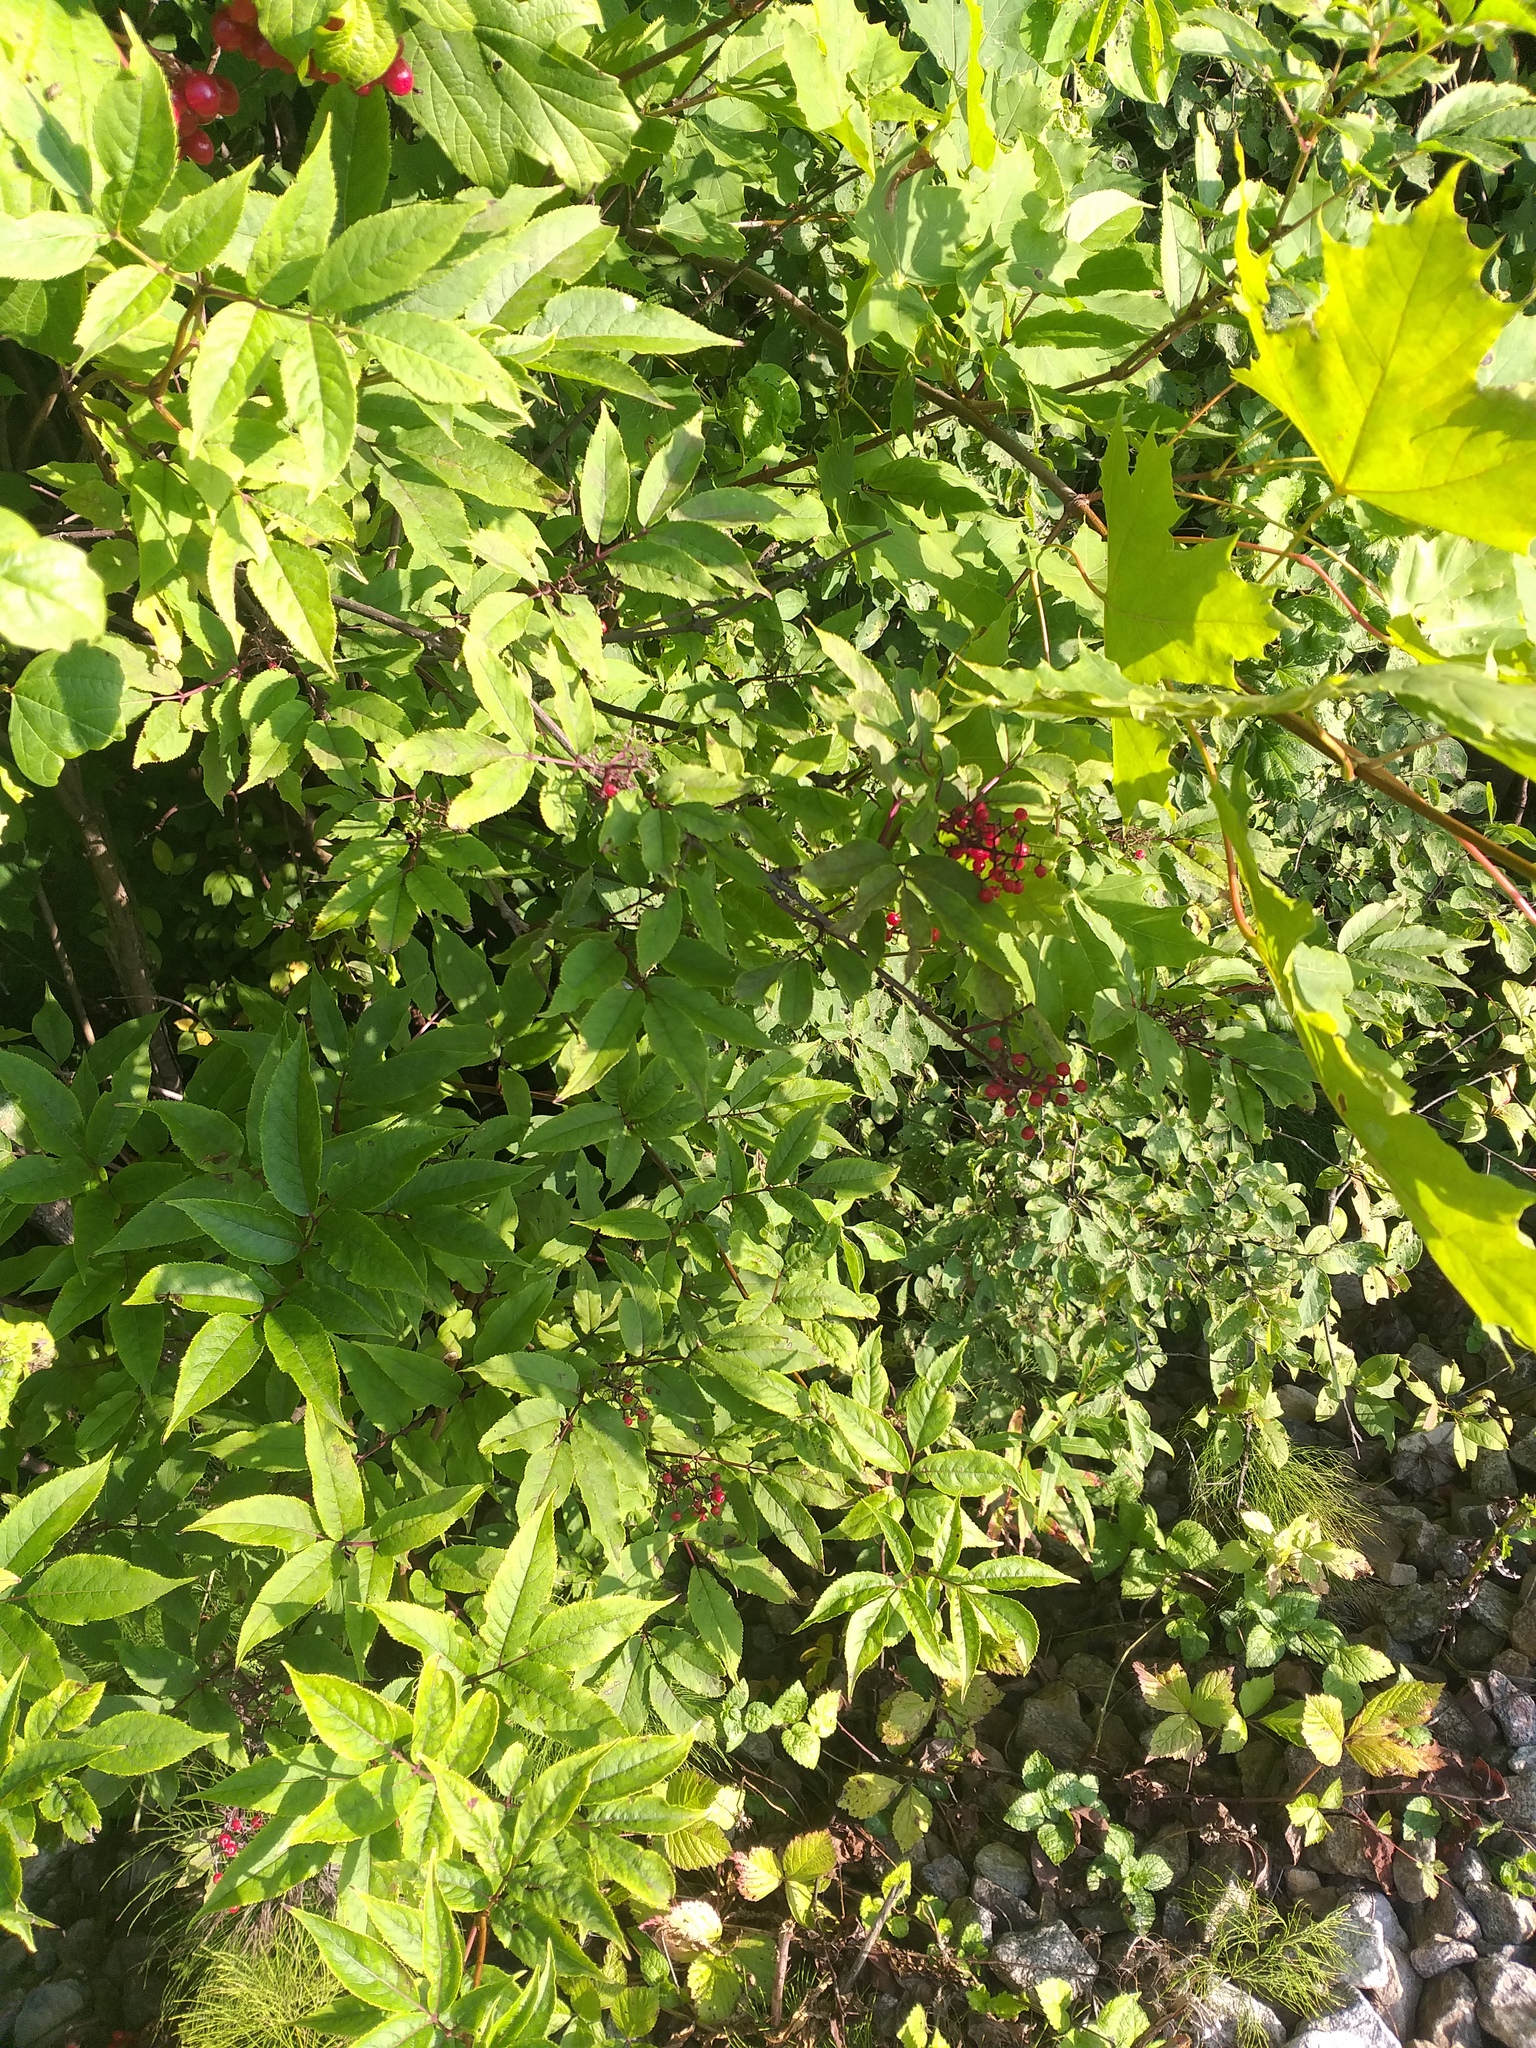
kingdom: Plantae
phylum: Tracheophyta
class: Magnoliopsida
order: Dipsacales
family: Viburnaceae
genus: Sambucus
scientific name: Sambucus racemosa
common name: Red-berried elder
